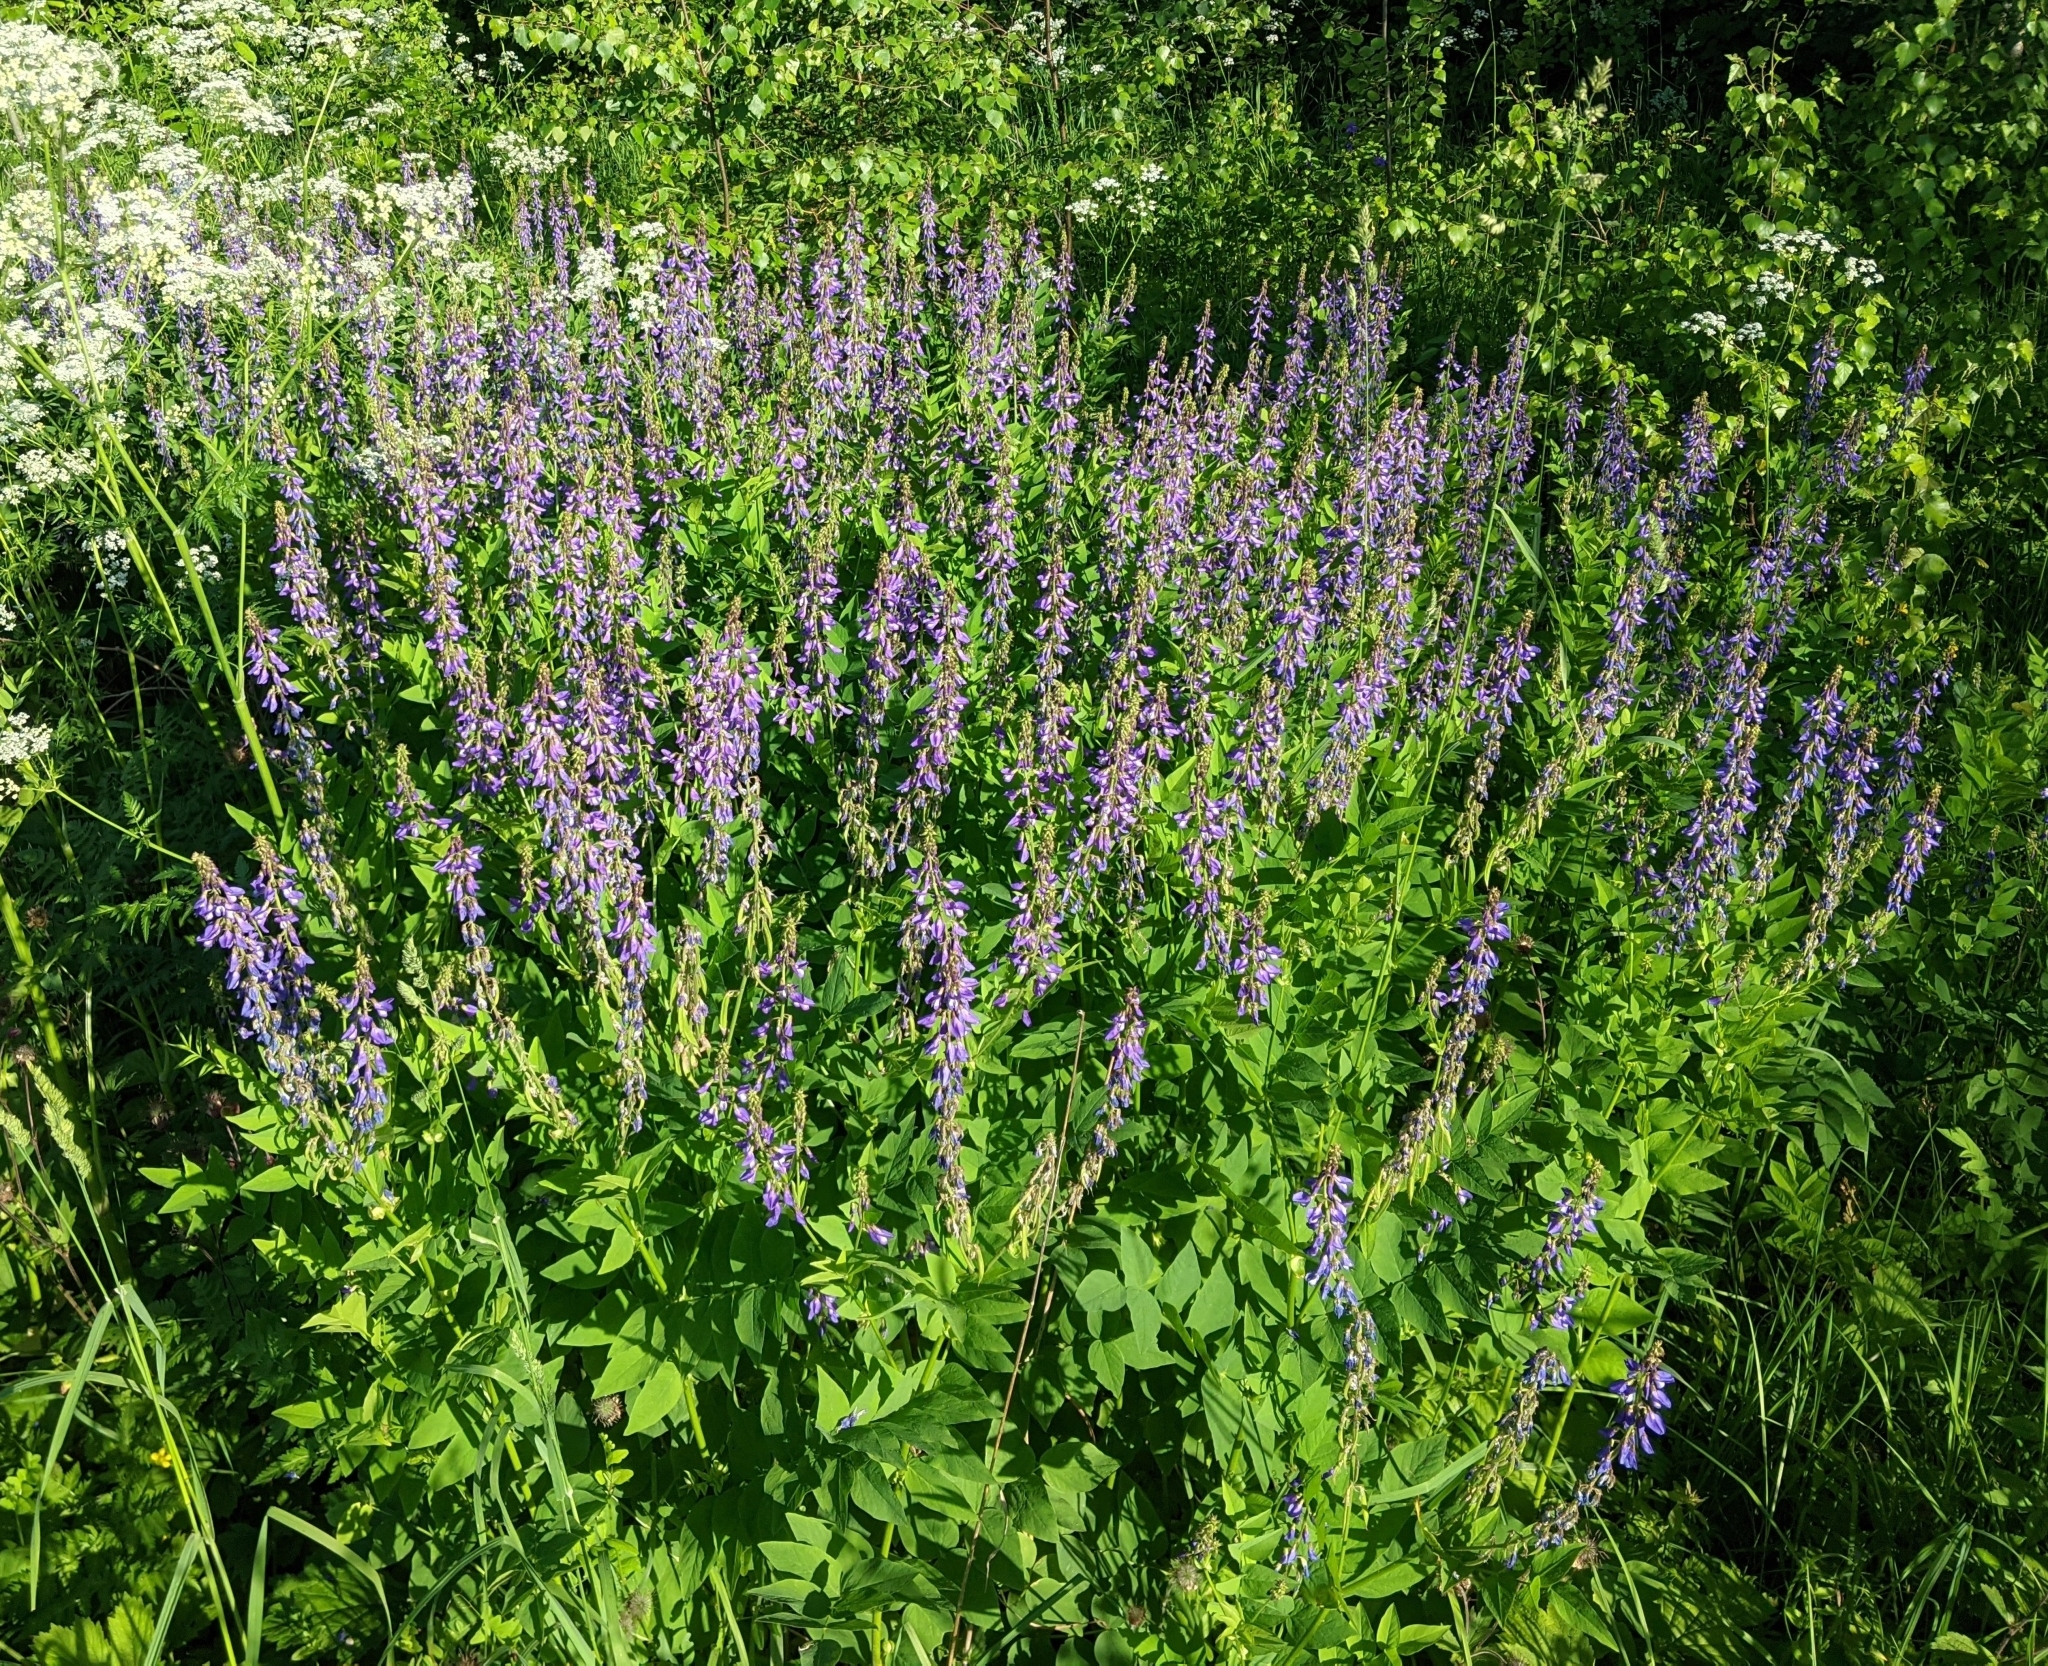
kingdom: Plantae
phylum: Tracheophyta
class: Magnoliopsida
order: Fabales
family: Fabaceae
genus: Galega
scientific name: Galega orientalis
